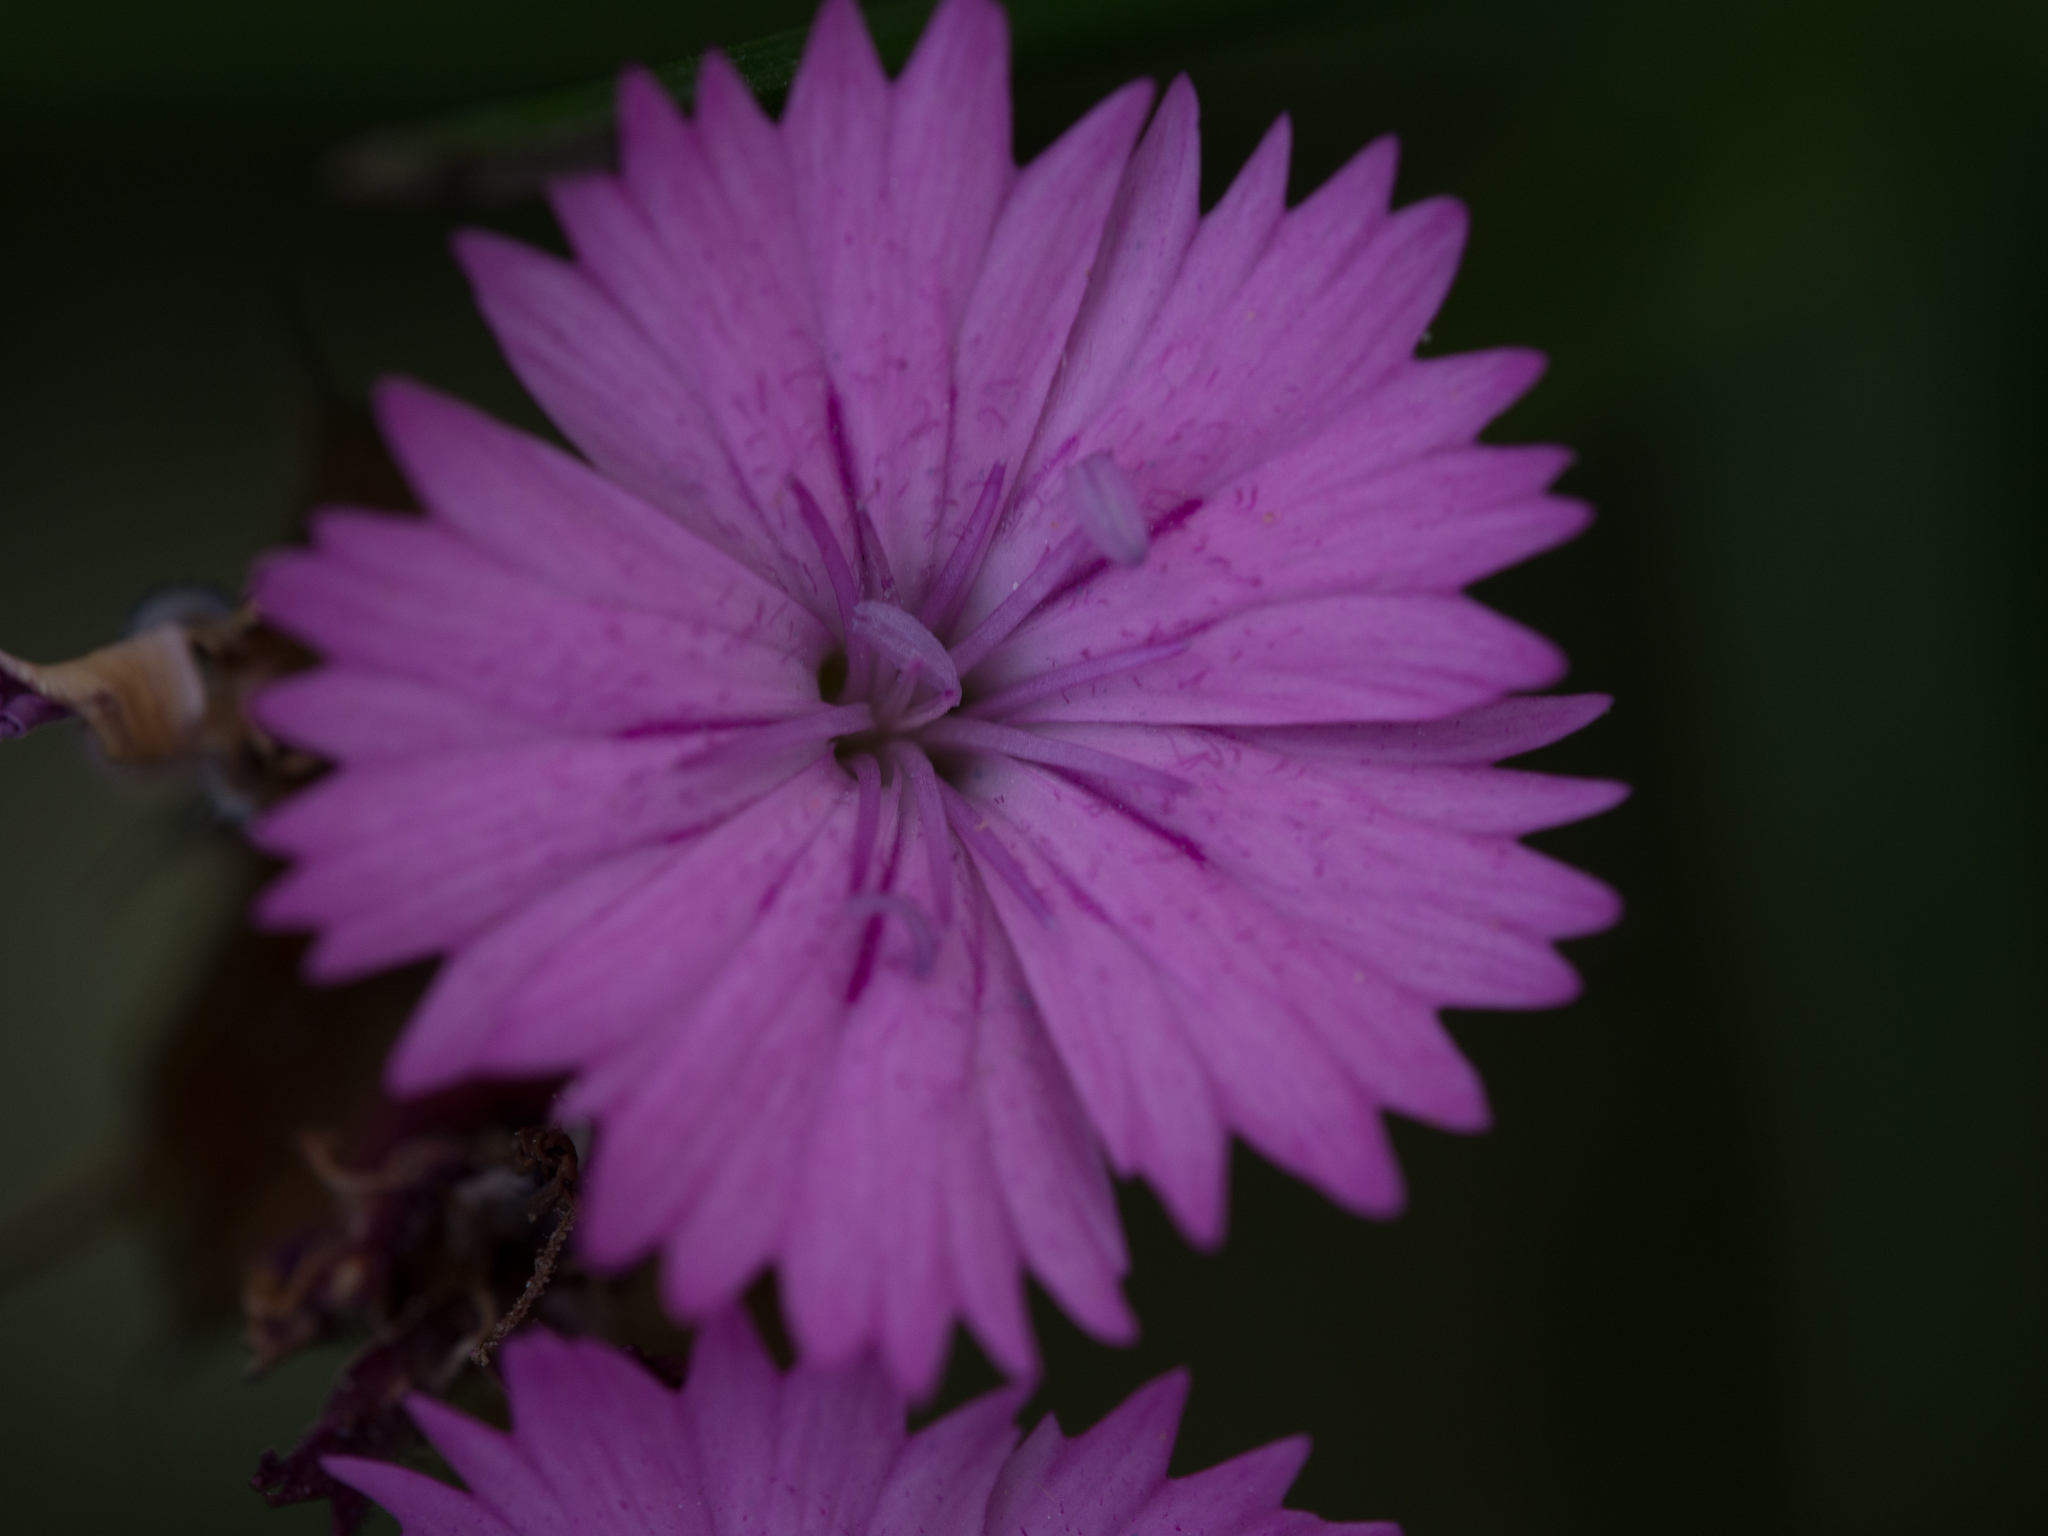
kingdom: Plantae
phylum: Tracheophyta
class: Magnoliopsida
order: Caryophyllales
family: Caryophyllaceae
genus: Dianthus
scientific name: Dianthus carthusianorum
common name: Carthusian pink
